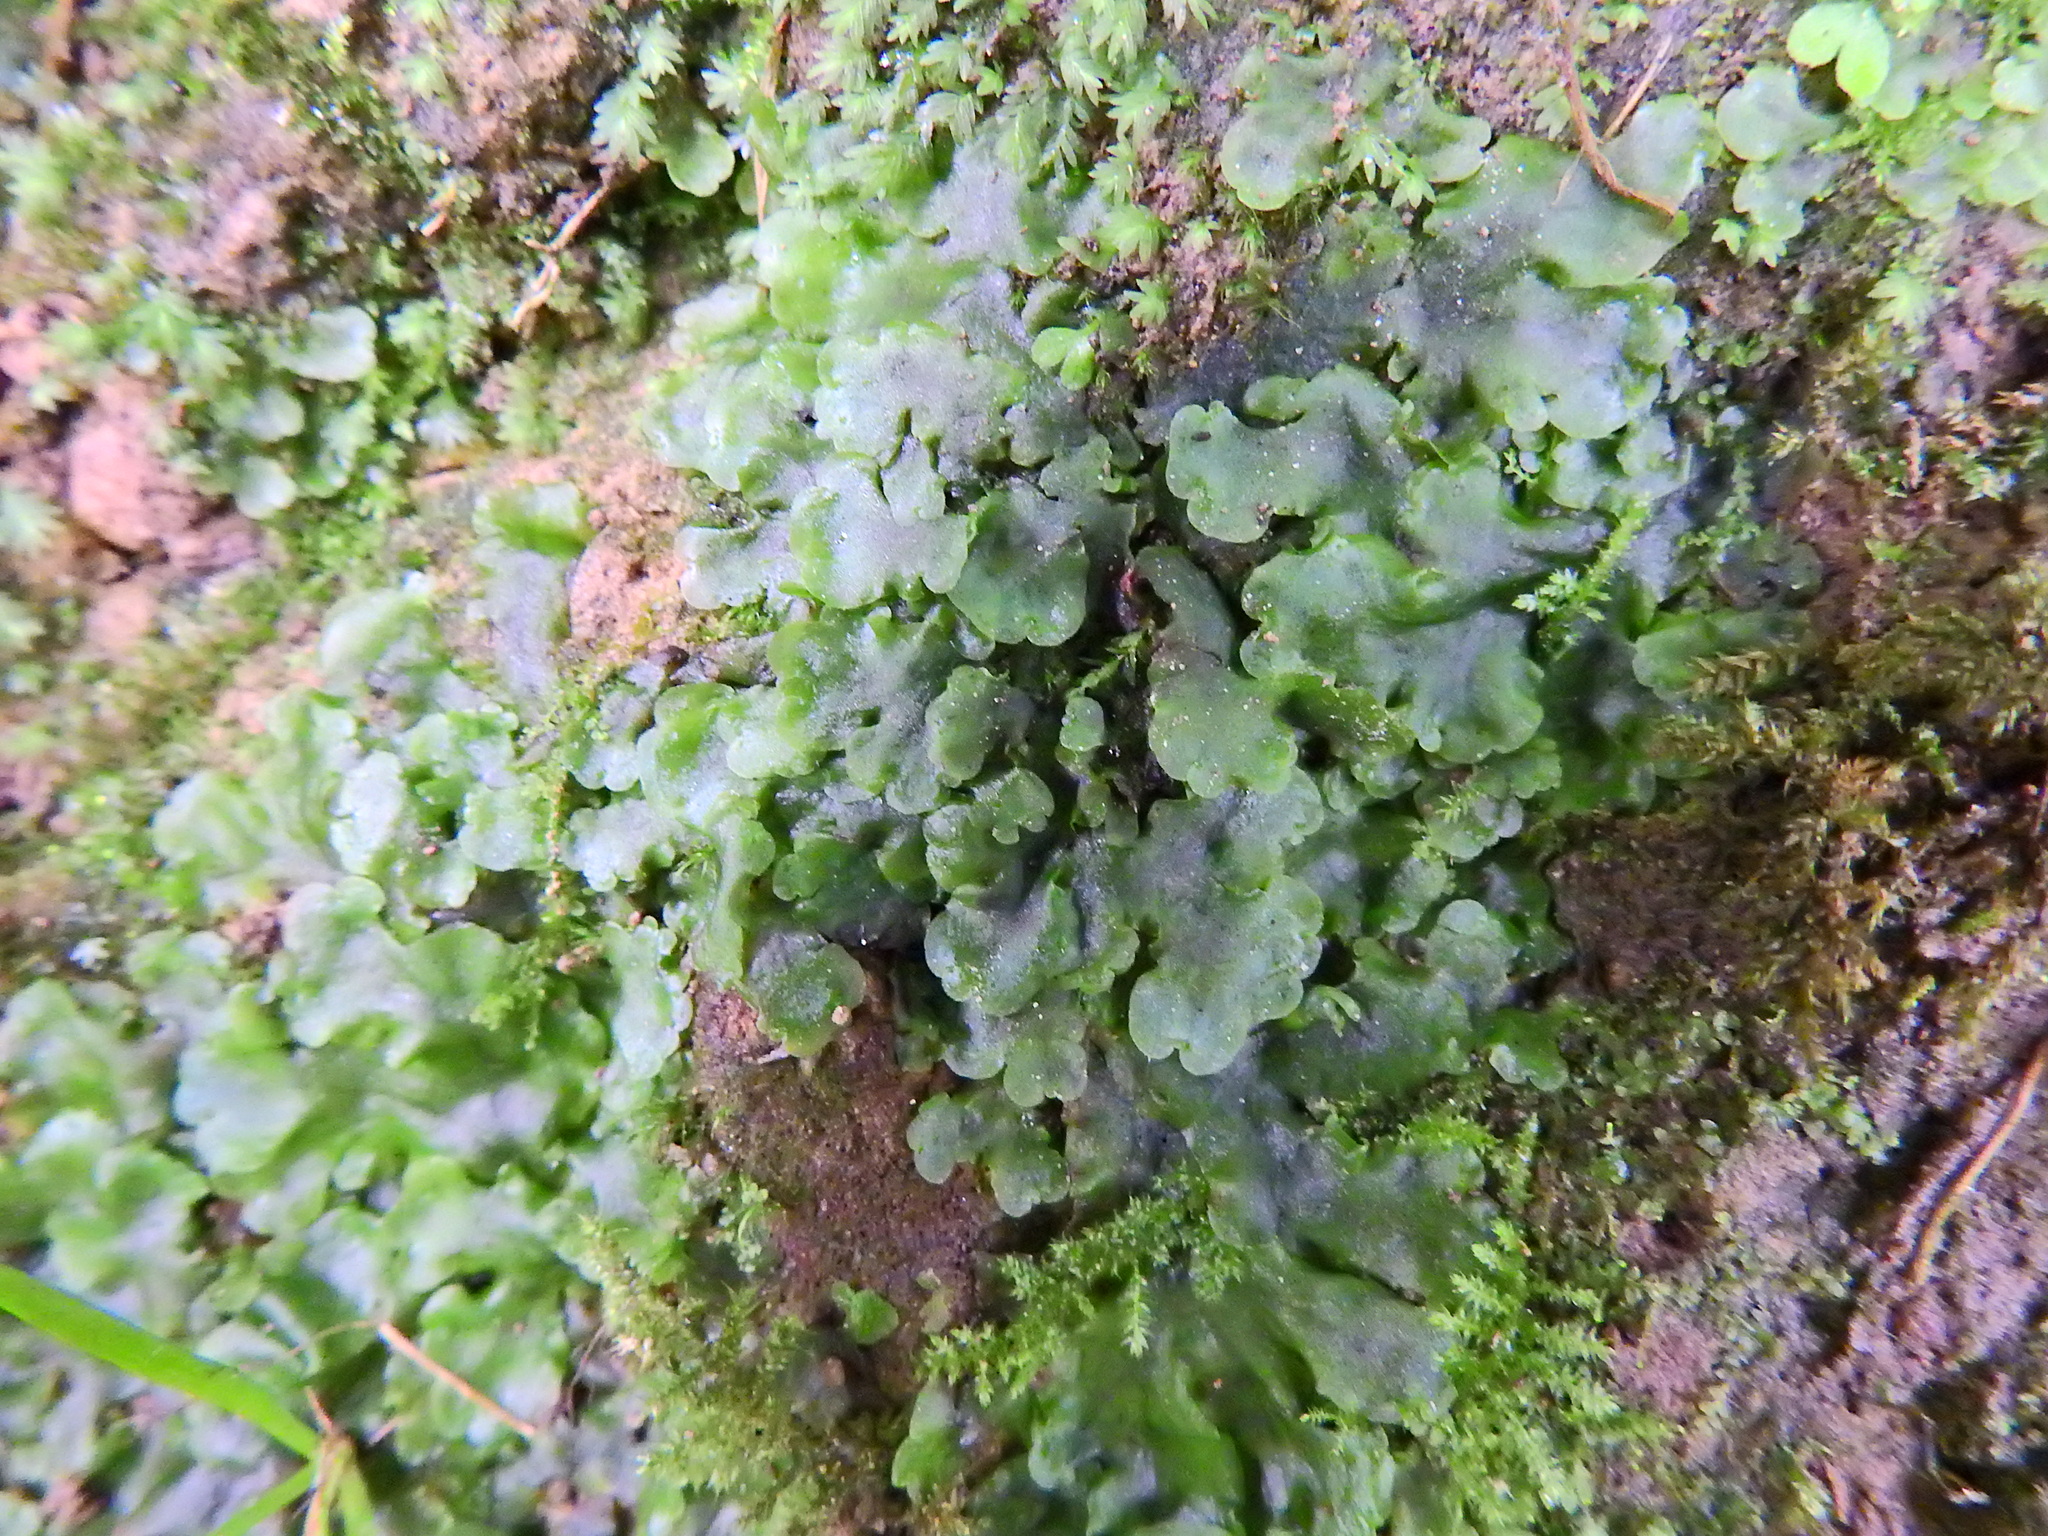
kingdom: Plantae
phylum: Marchantiophyta
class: Jungermanniopsida
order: Pelliales
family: Pelliaceae
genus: Pellia
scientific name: Pellia epiphylla
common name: Common pellia
